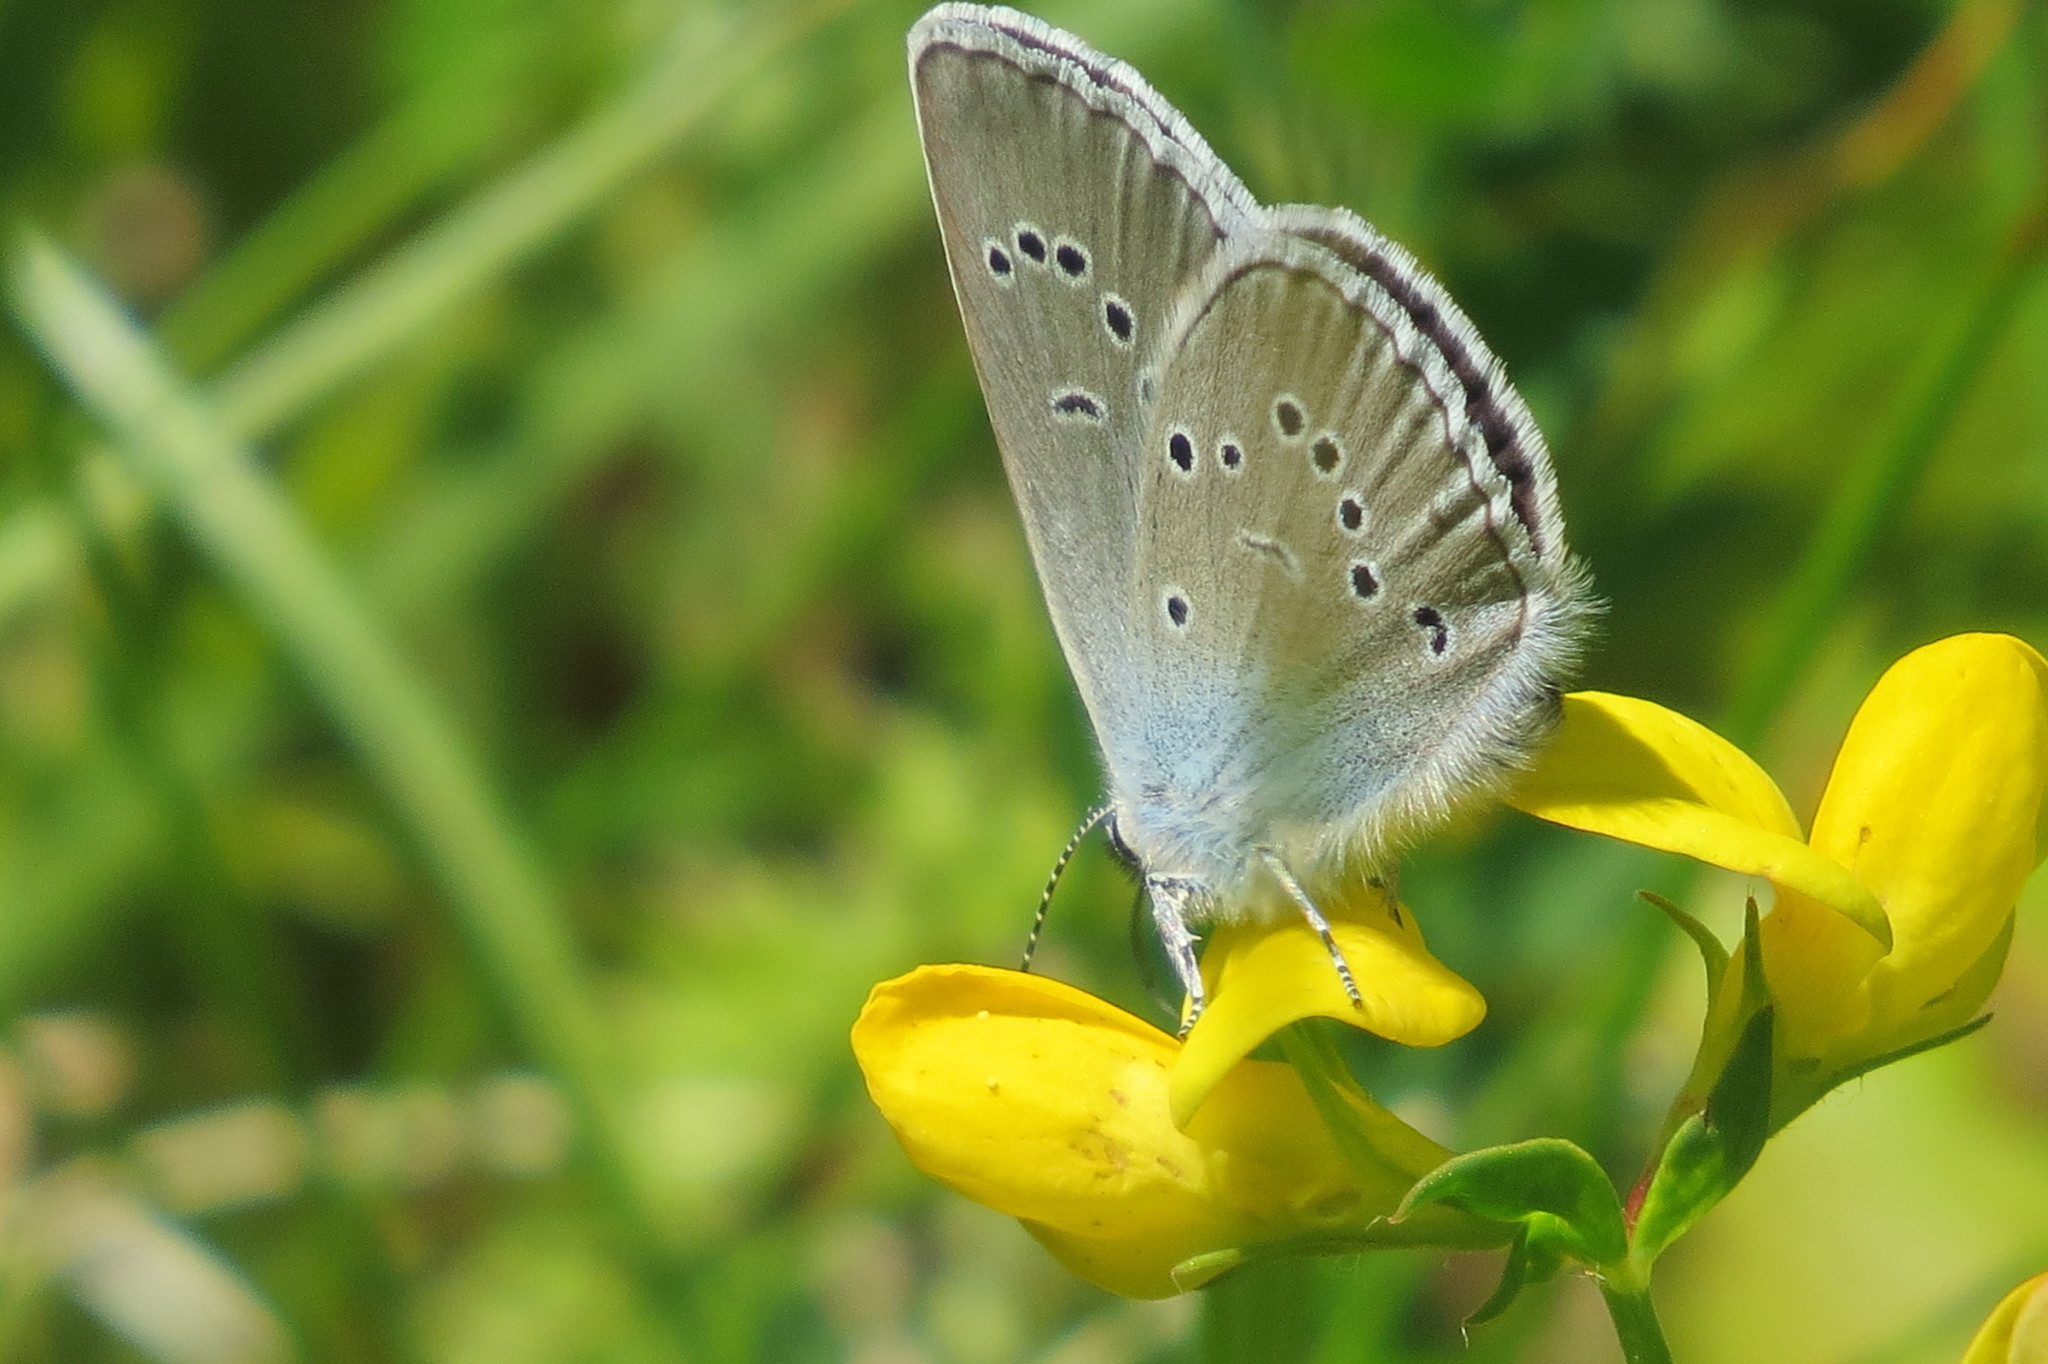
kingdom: Animalia
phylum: Arthropoda
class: Insecta
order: Lepidoptera
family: Lycaenidae
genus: Cyaniris
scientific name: Cyaniris semiargus
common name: Mazarine blue
